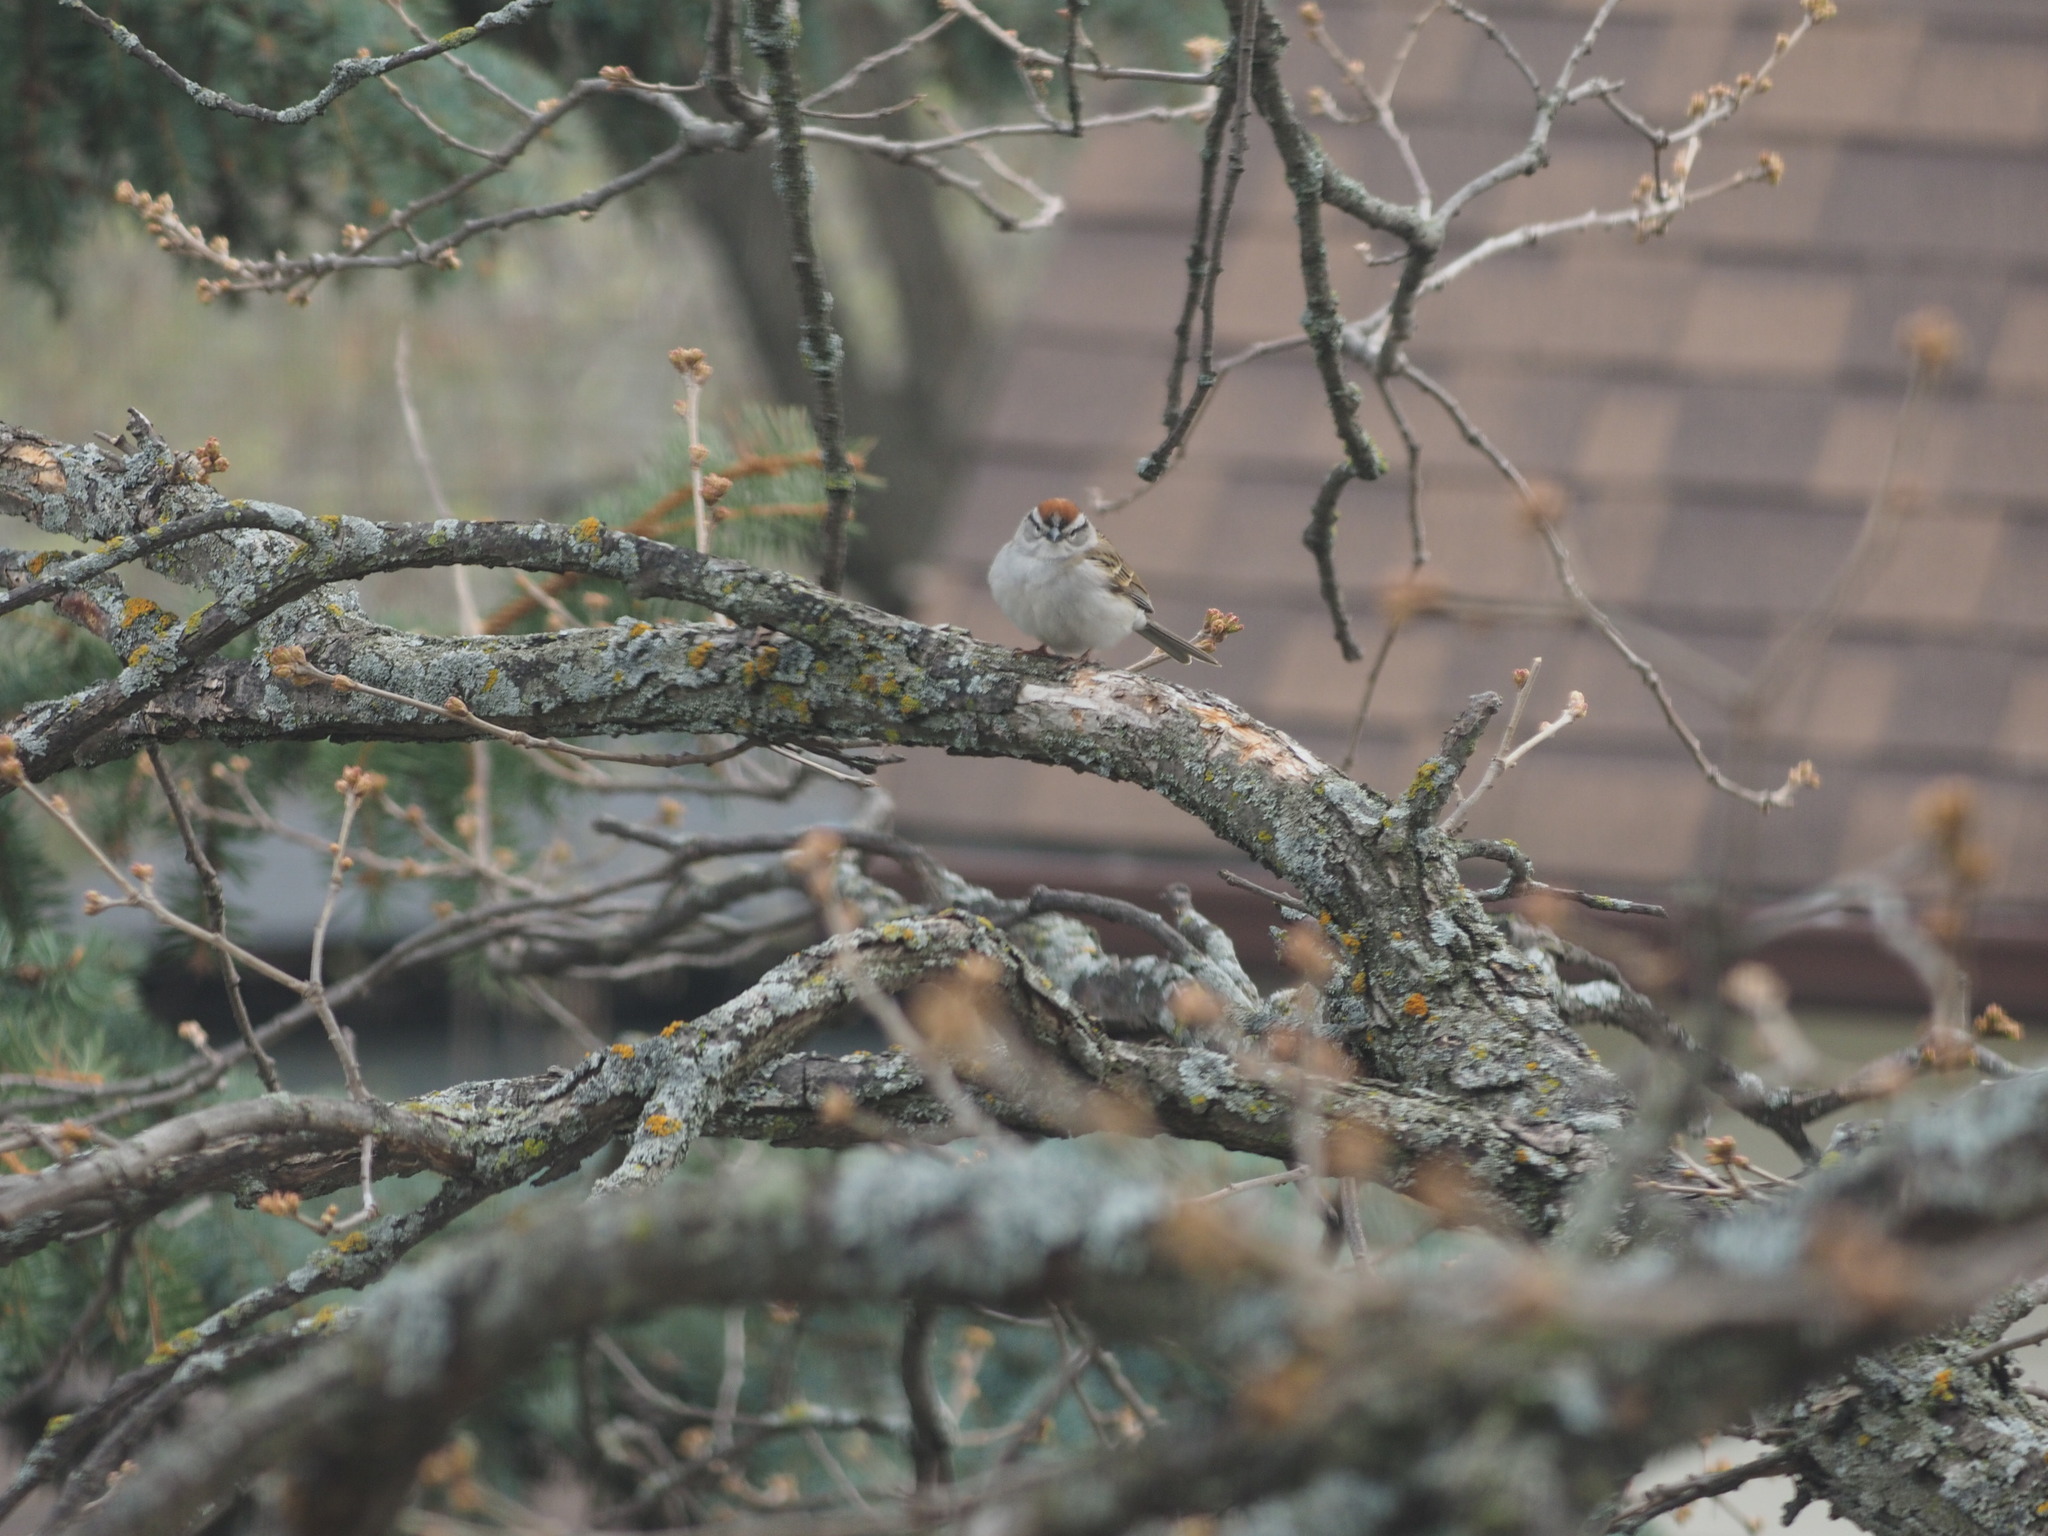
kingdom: Animalia
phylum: Chordata
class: Aves
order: Passeriformes
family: Passerellidae
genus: Spizella
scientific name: Spizella passerina
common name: Chipping sparrow
